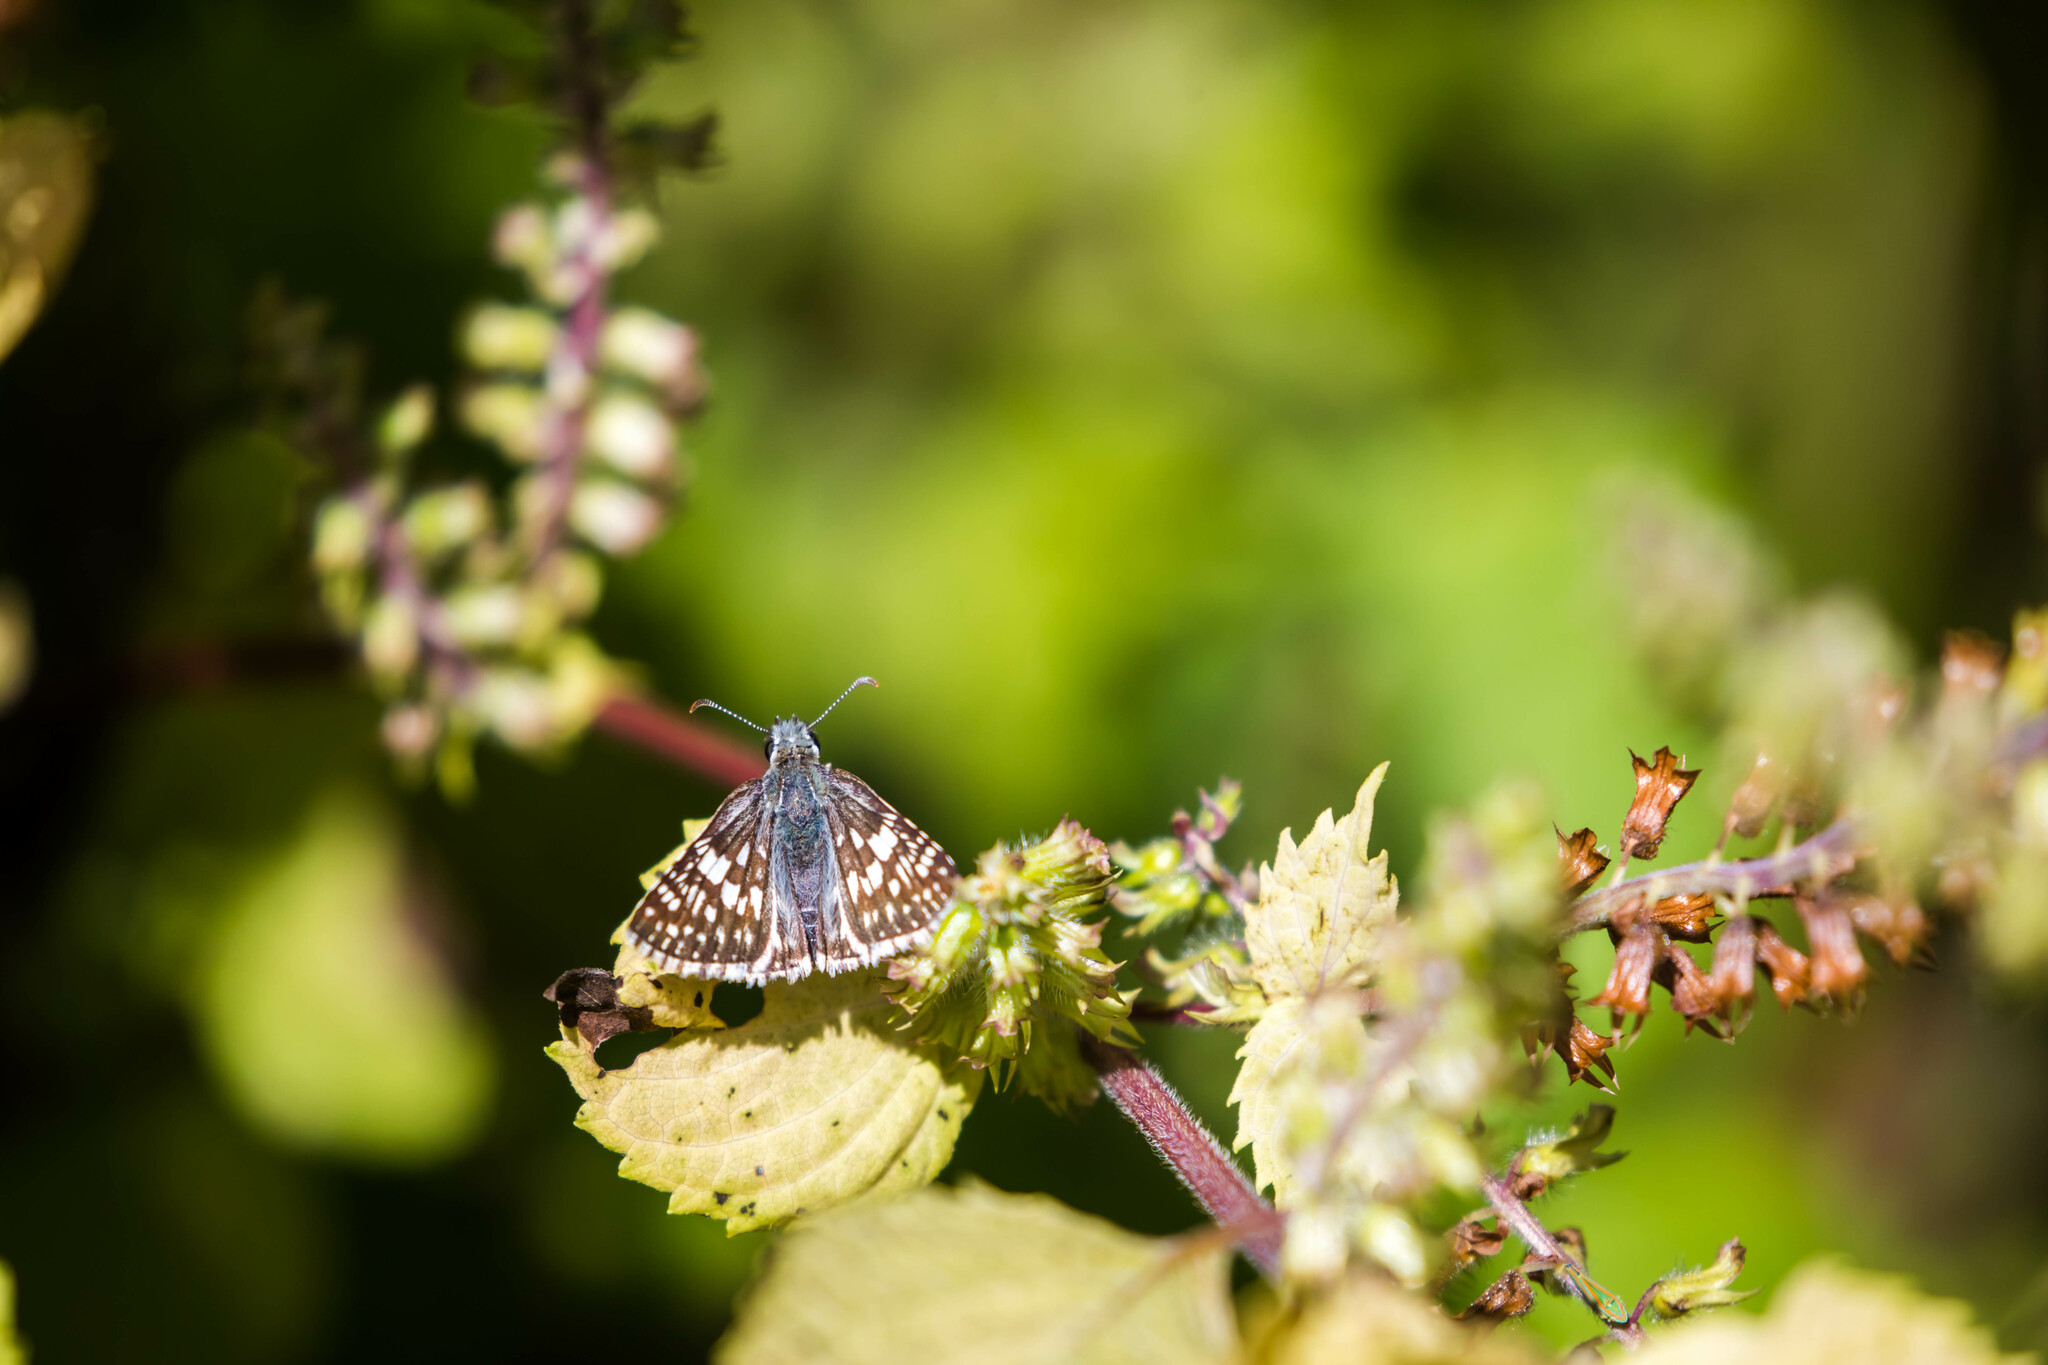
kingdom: Animalia
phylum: Arthropoda
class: Insecta
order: Lepidoptera
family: Hesperiidae
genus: Burnsius
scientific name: Burnsius communis
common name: Common checkered-skipper
